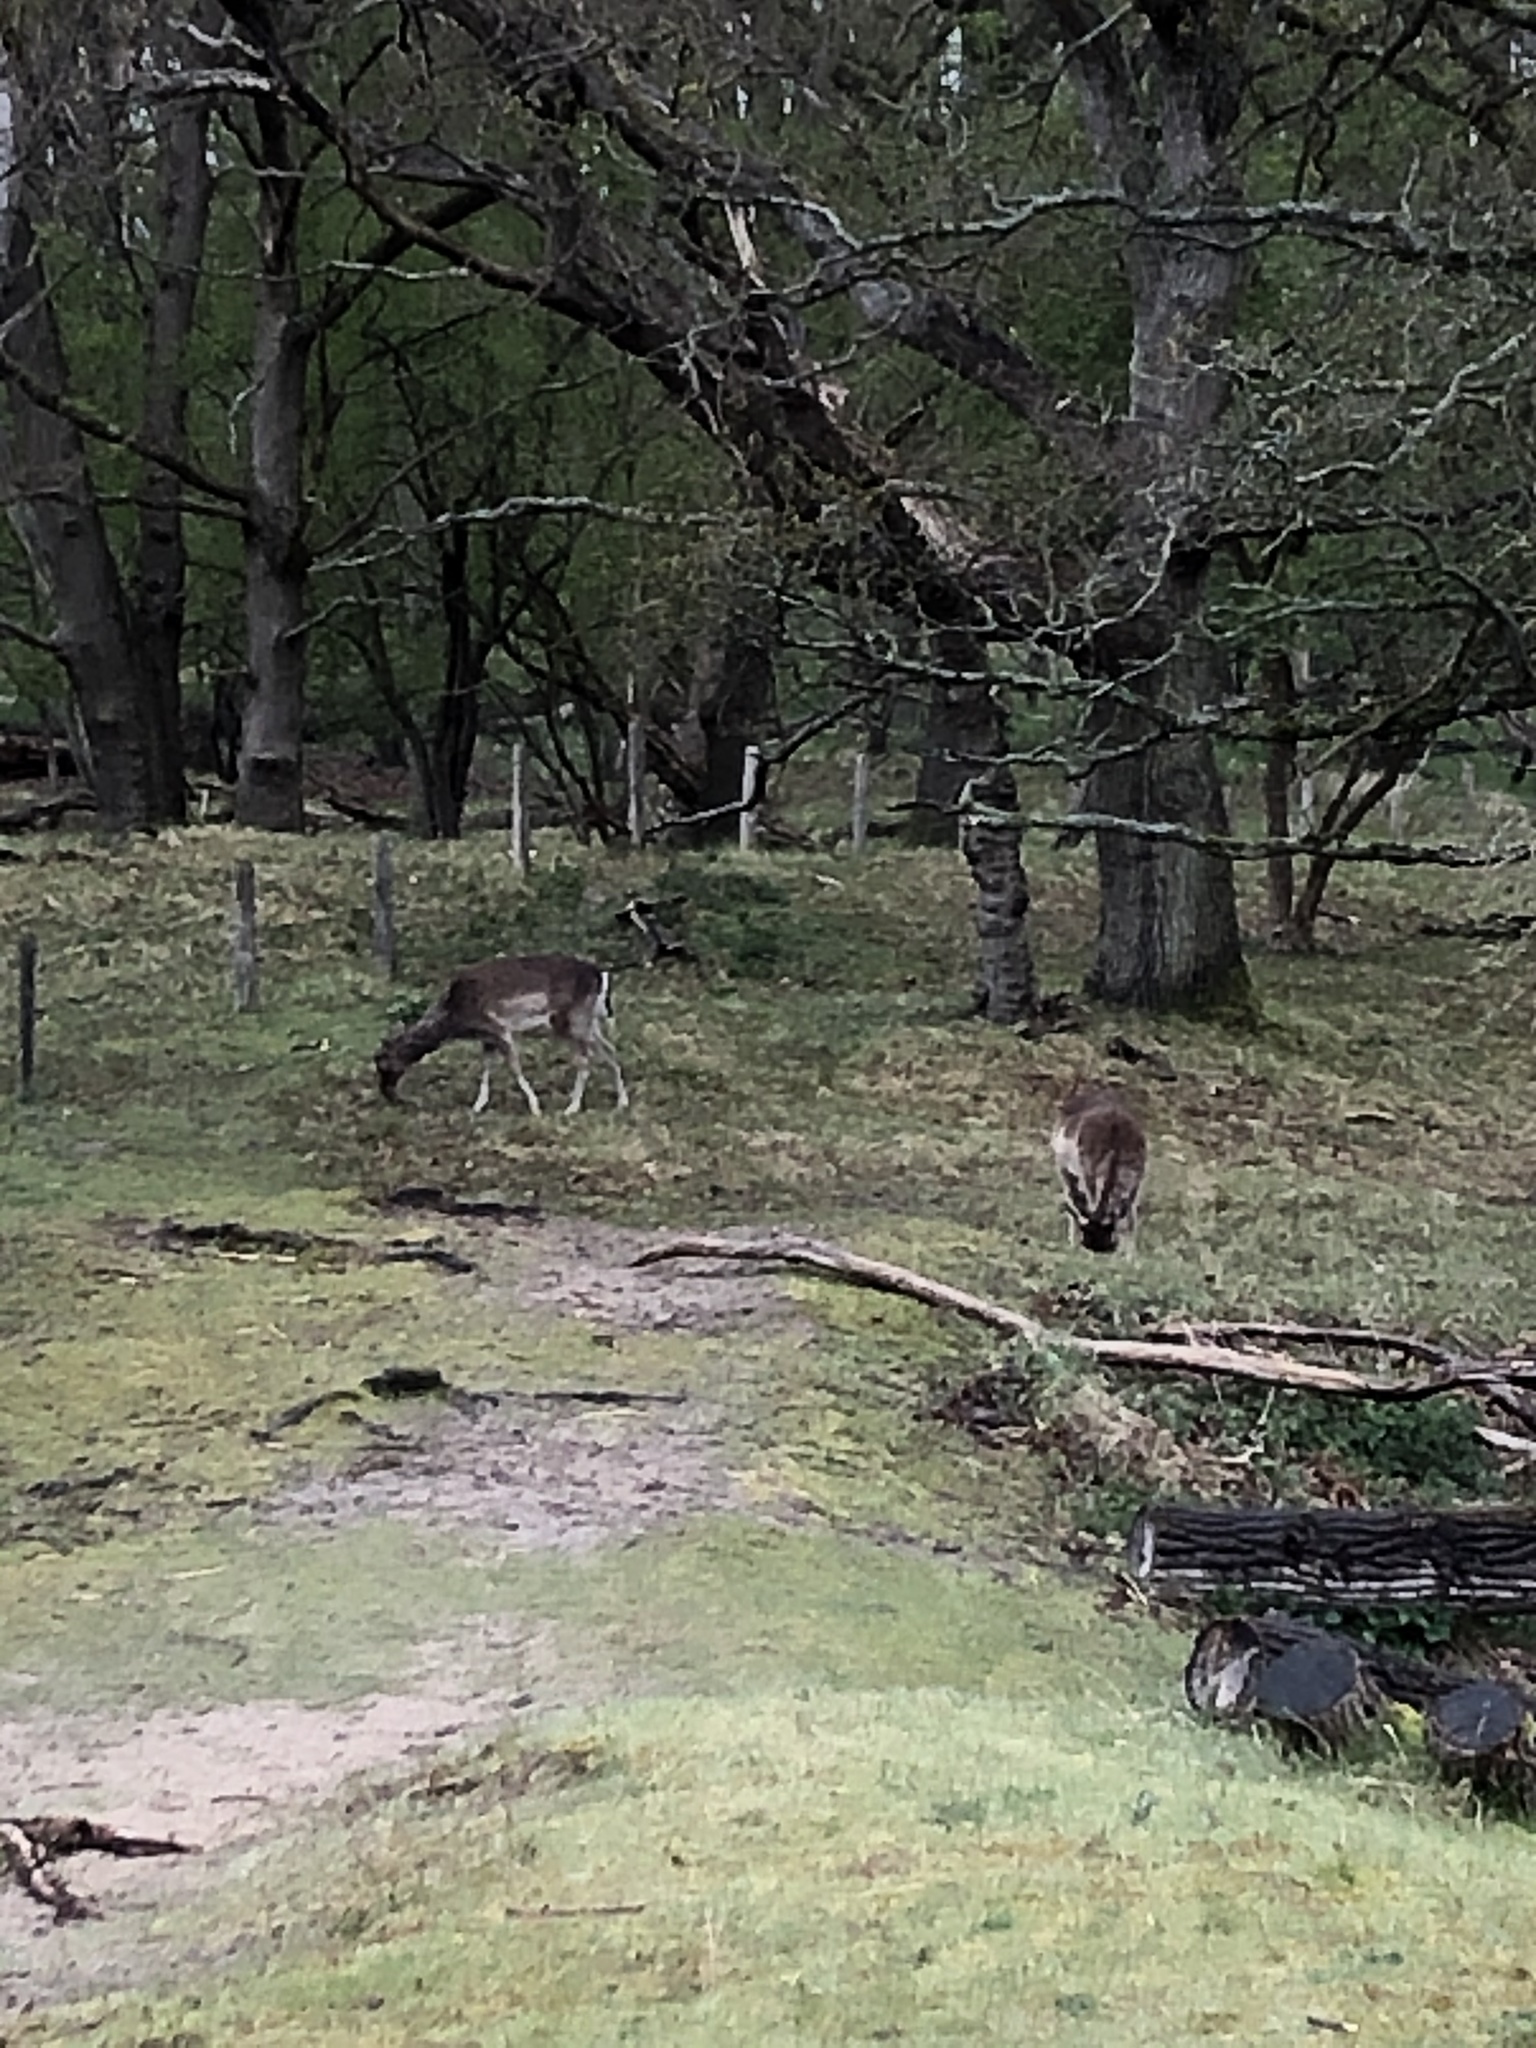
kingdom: Animalia
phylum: Chordata
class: Mammalia
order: Artiodactyla
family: Cervidae
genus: Dama
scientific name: Dama dama
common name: Fallow deer
